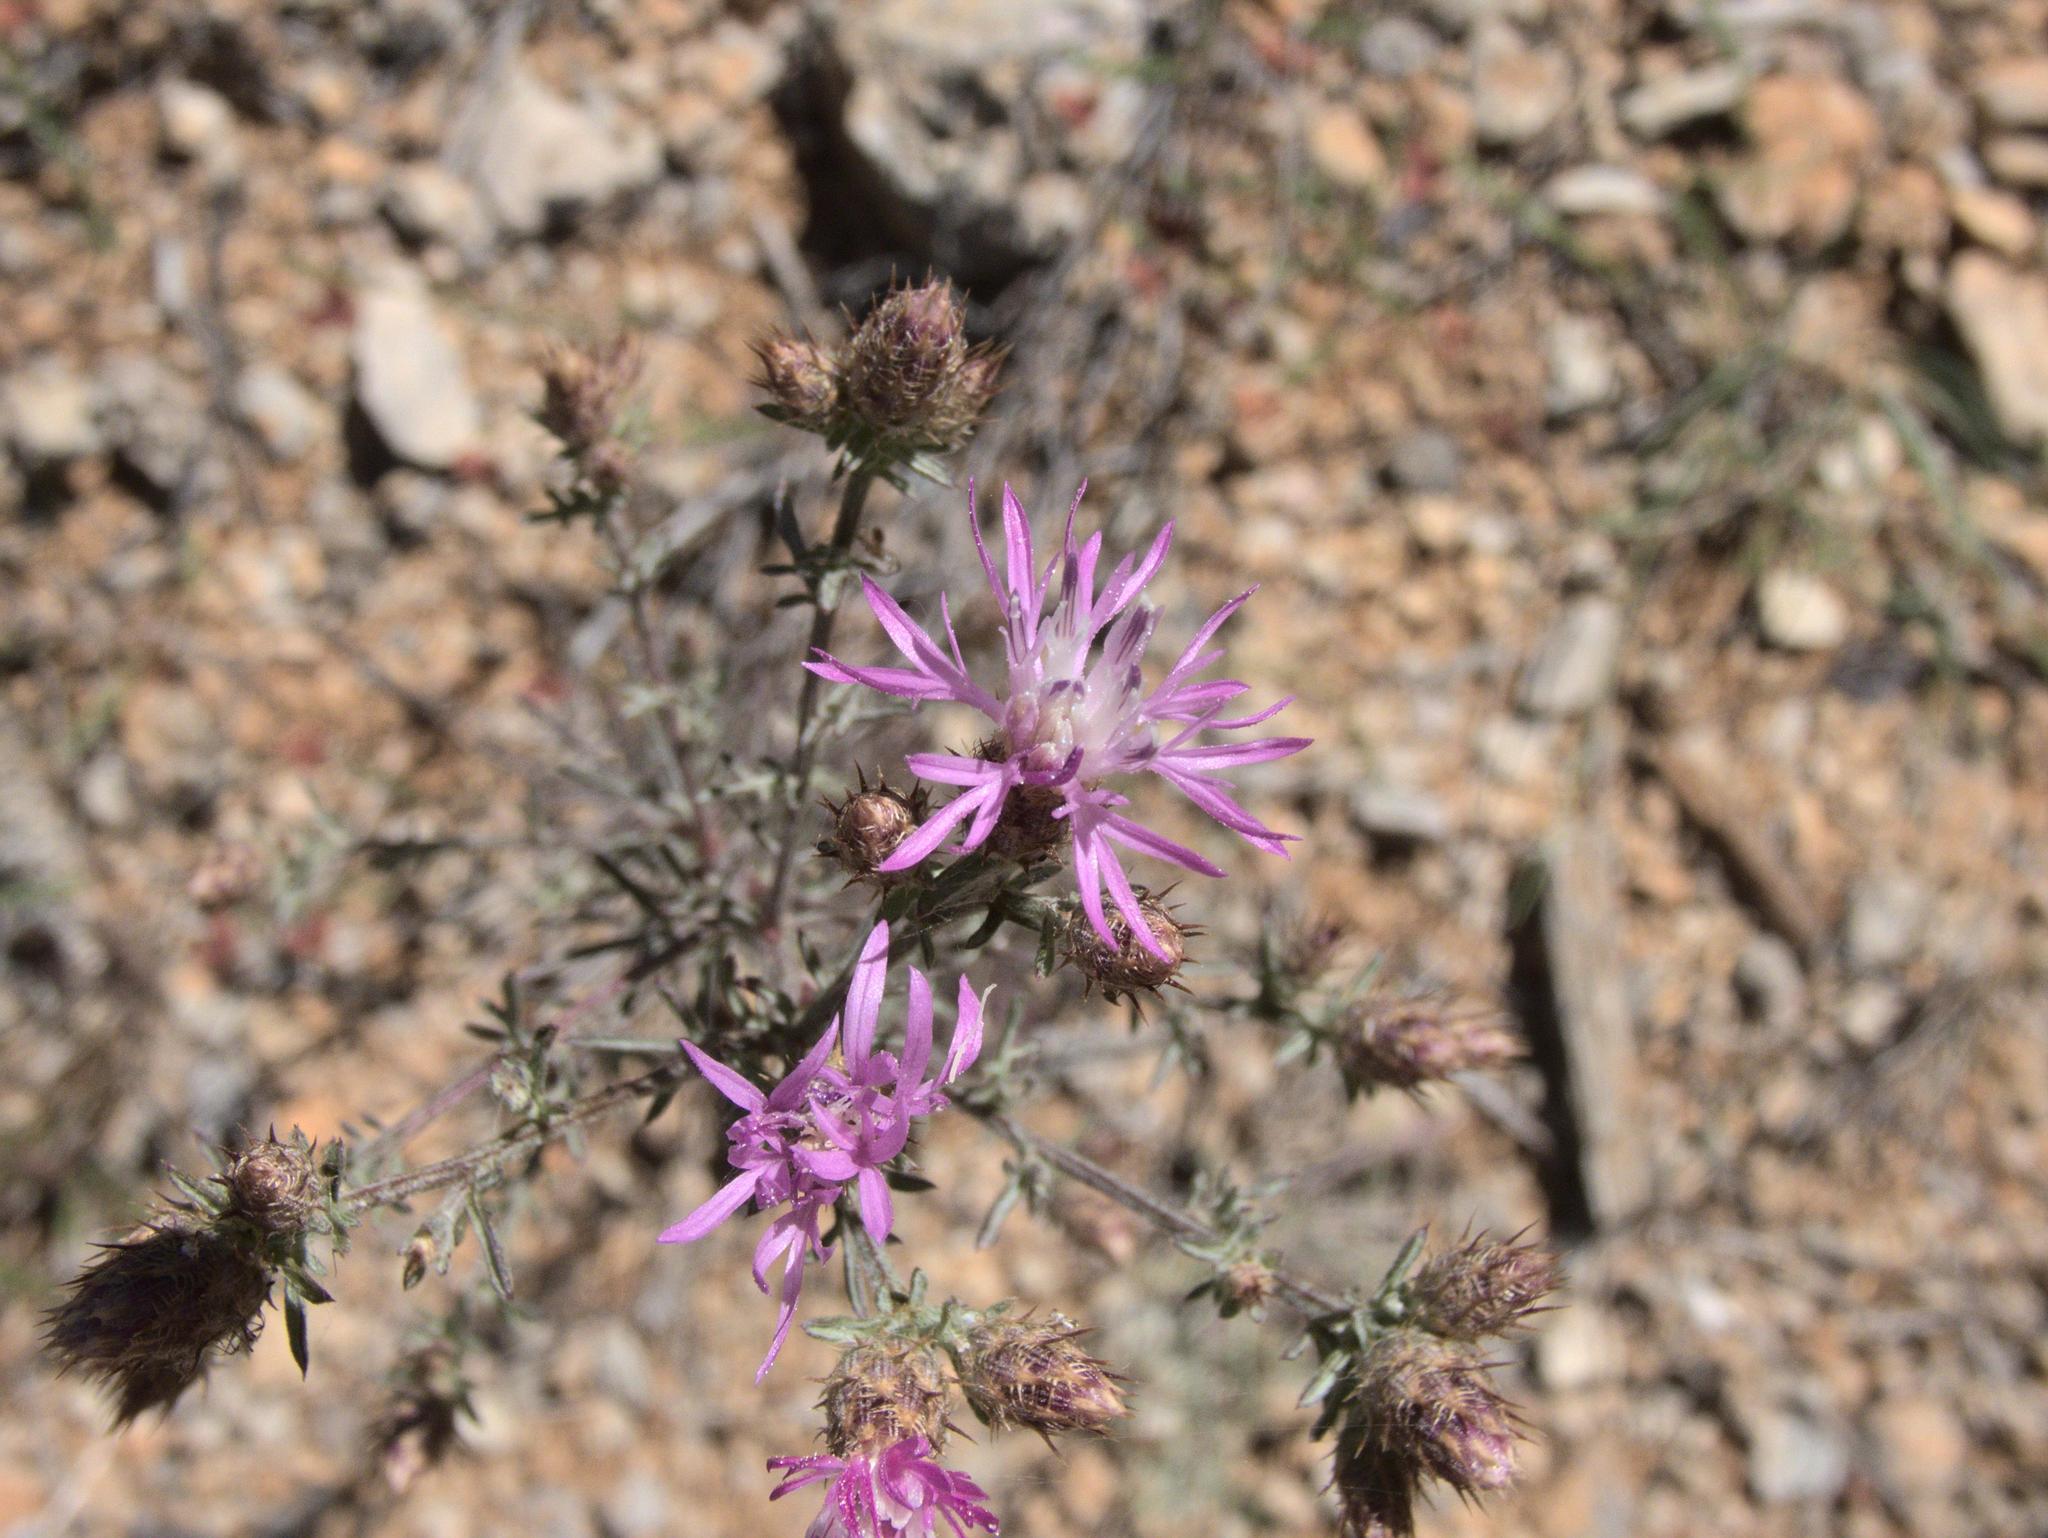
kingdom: Plantae
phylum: Tracheophyta
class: Magnoliopsida
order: Asterales
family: Asteraceae
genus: Centaurea
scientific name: Centaurea stoebe
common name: Spotted knapweed
